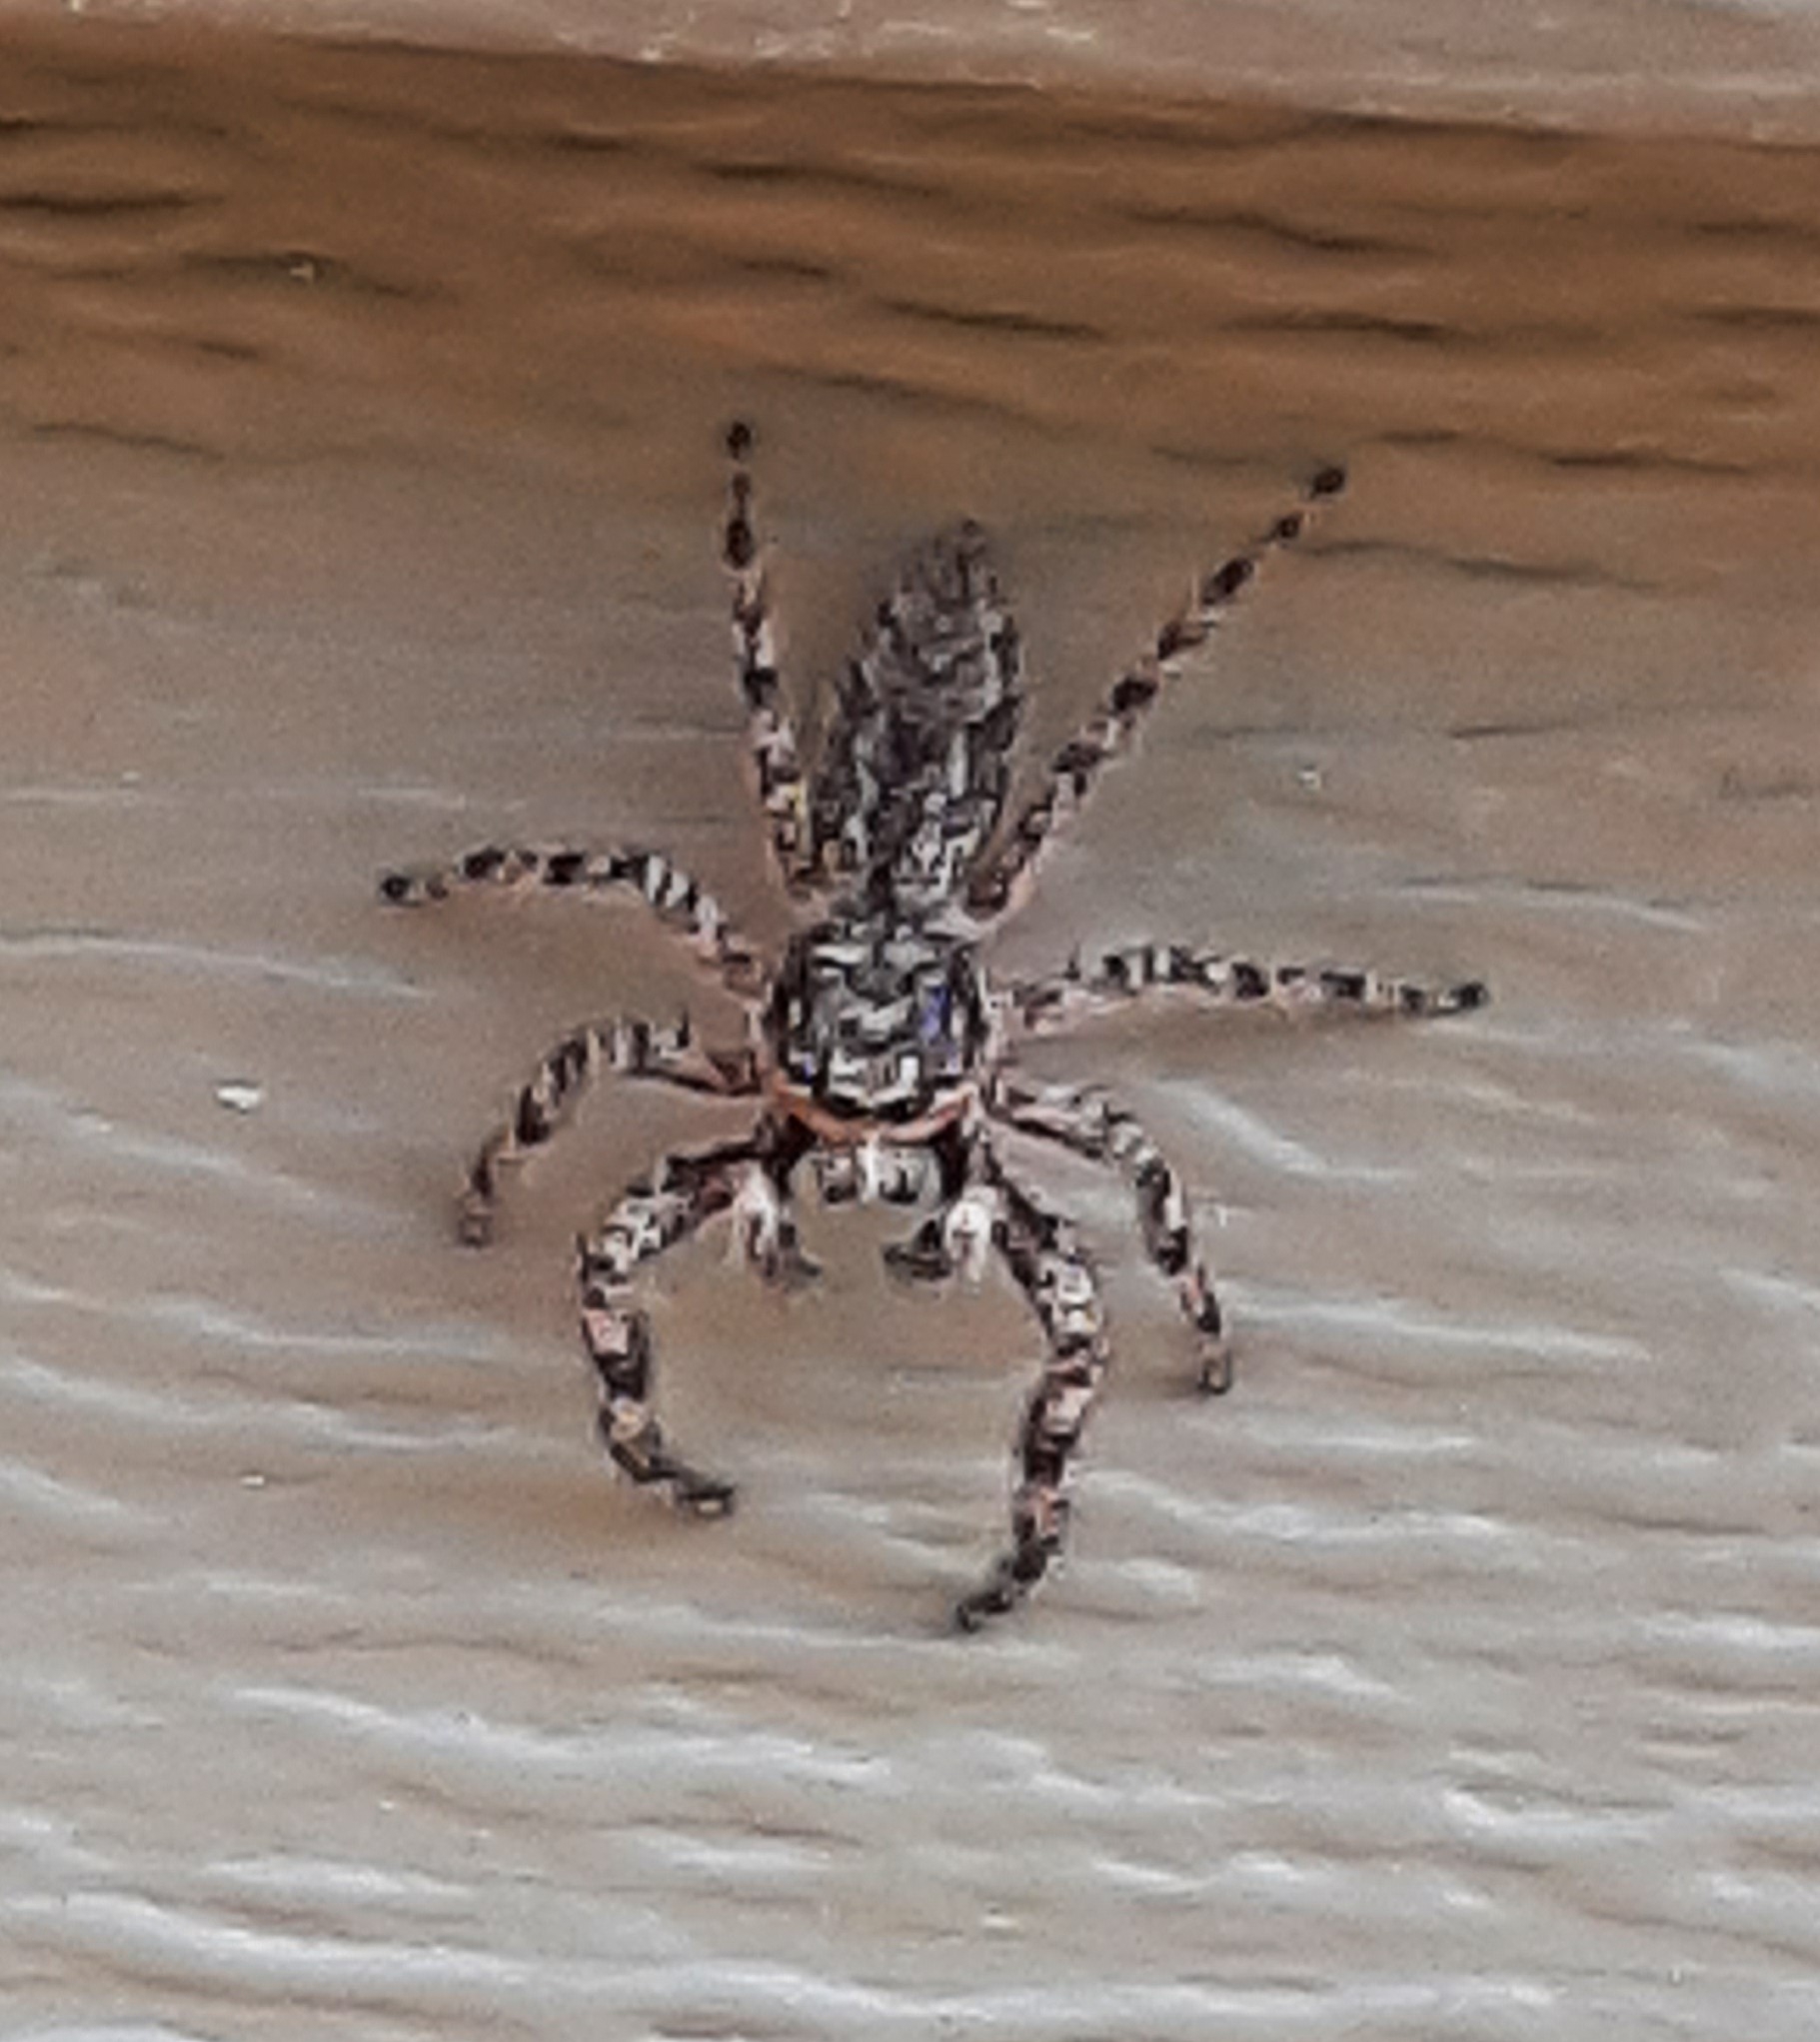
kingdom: Animalia
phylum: Arthropoda
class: Arachnida
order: Araneae
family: Salticidae
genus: Platycryptus
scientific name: Platycryptus undatus
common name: Tan jumping spider
